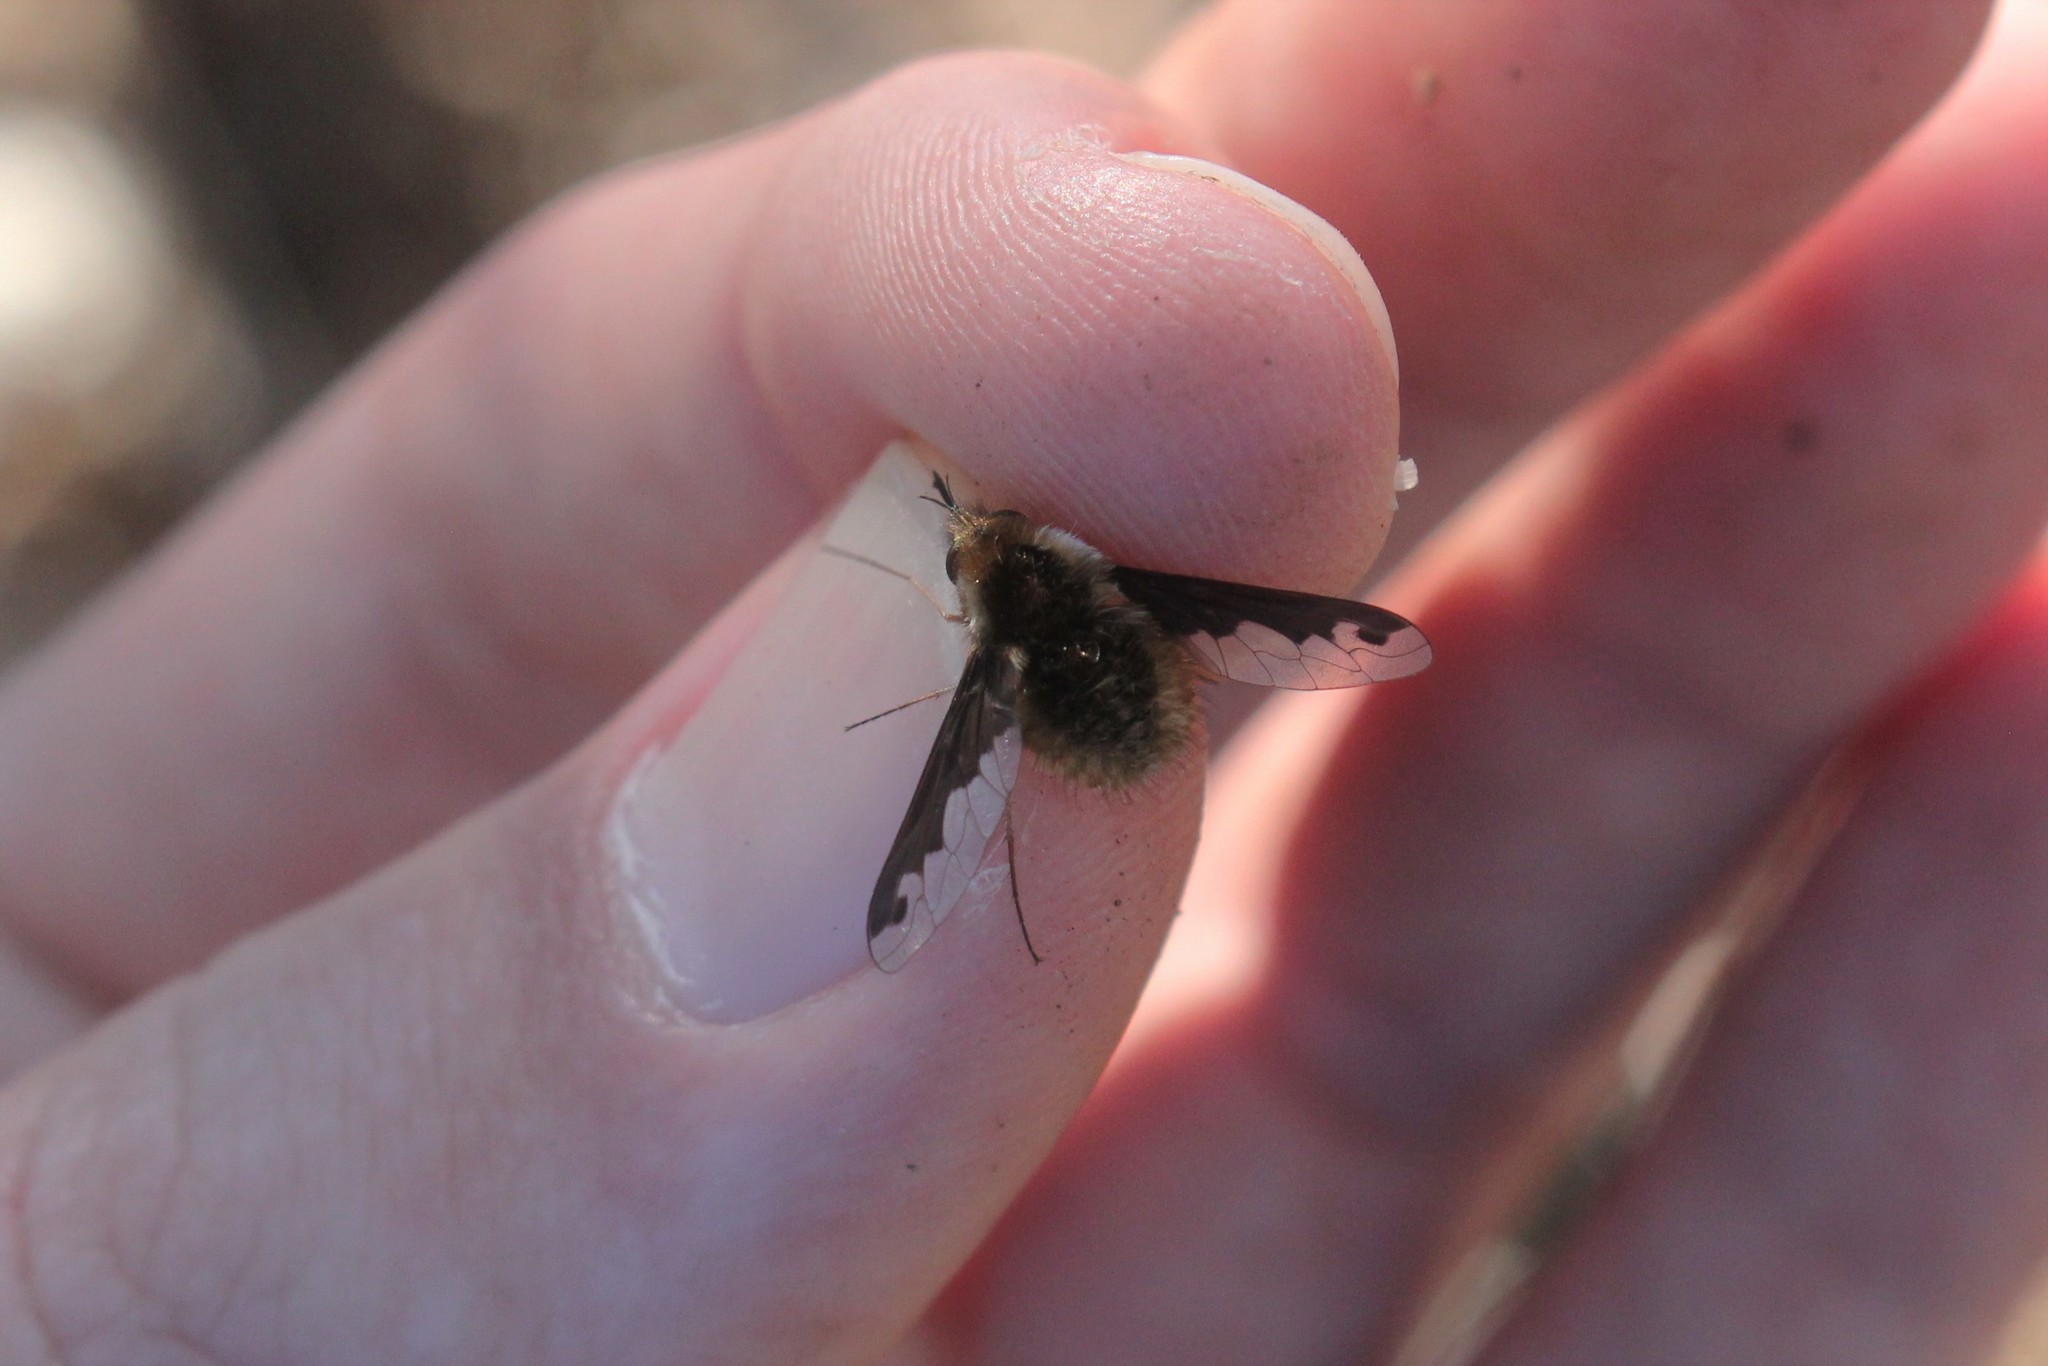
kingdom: Animalia
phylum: Arthropoda
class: Insecta
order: Diptera
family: Bombyliidae
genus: Bombylius
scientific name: Bombylius major
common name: Bee fly
